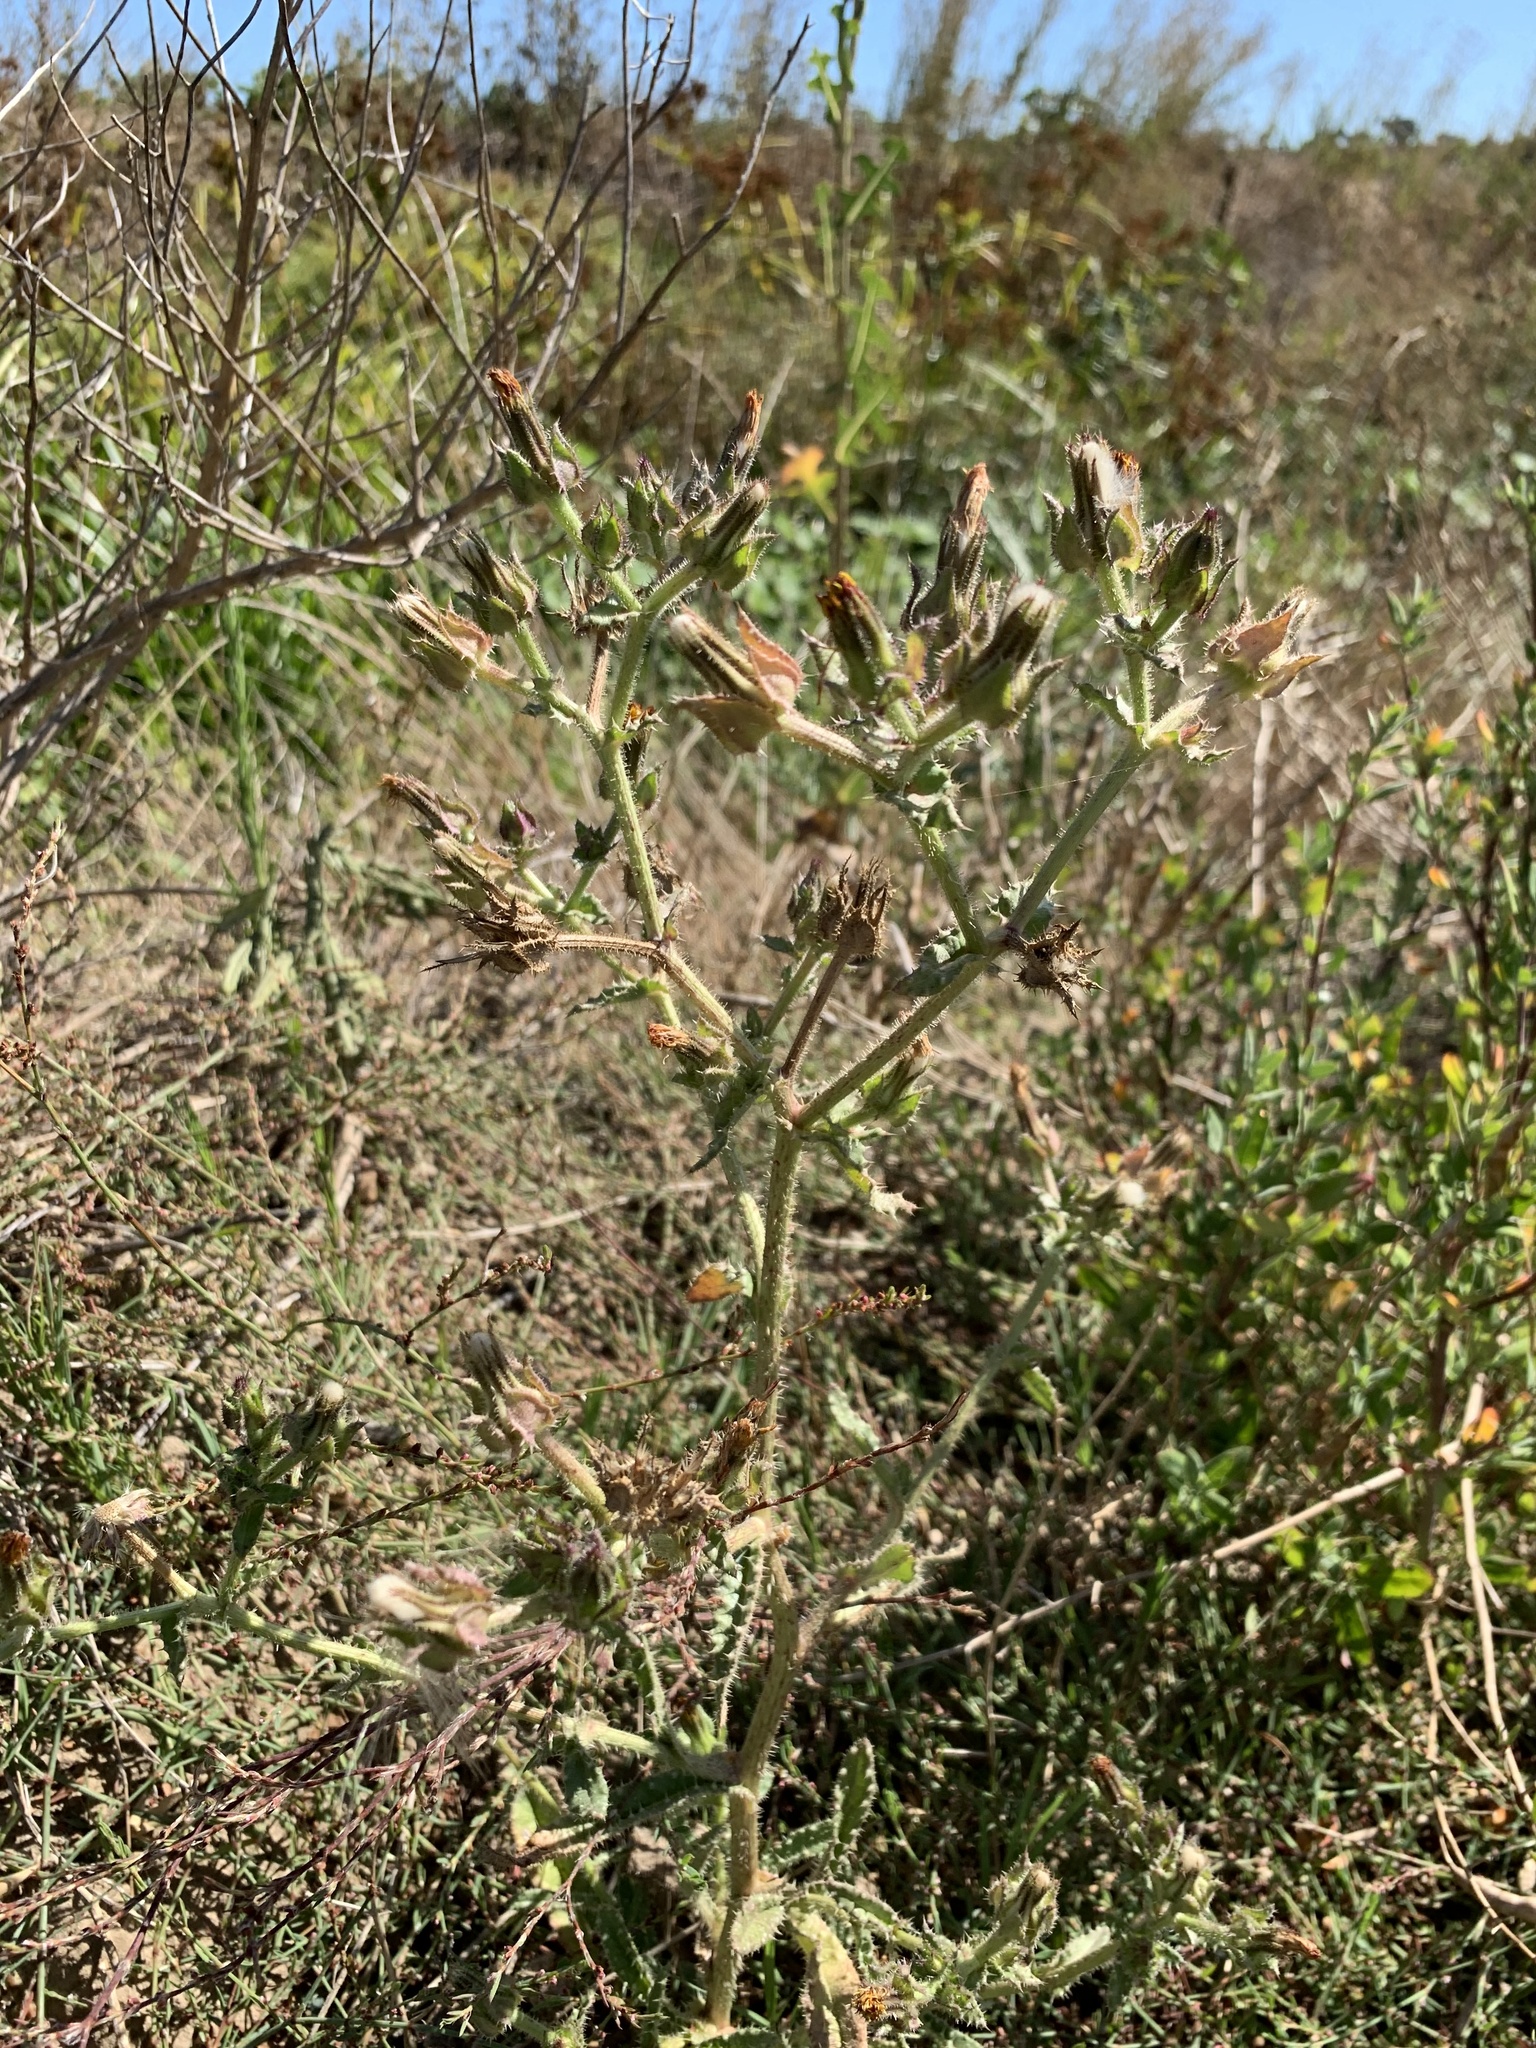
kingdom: Plantae
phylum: Tracheophyta
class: Magnoliopsida
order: Asterales
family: Asteraceae
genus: Helminthotheca
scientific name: Helminthotheca echioides
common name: Ox-tongue
